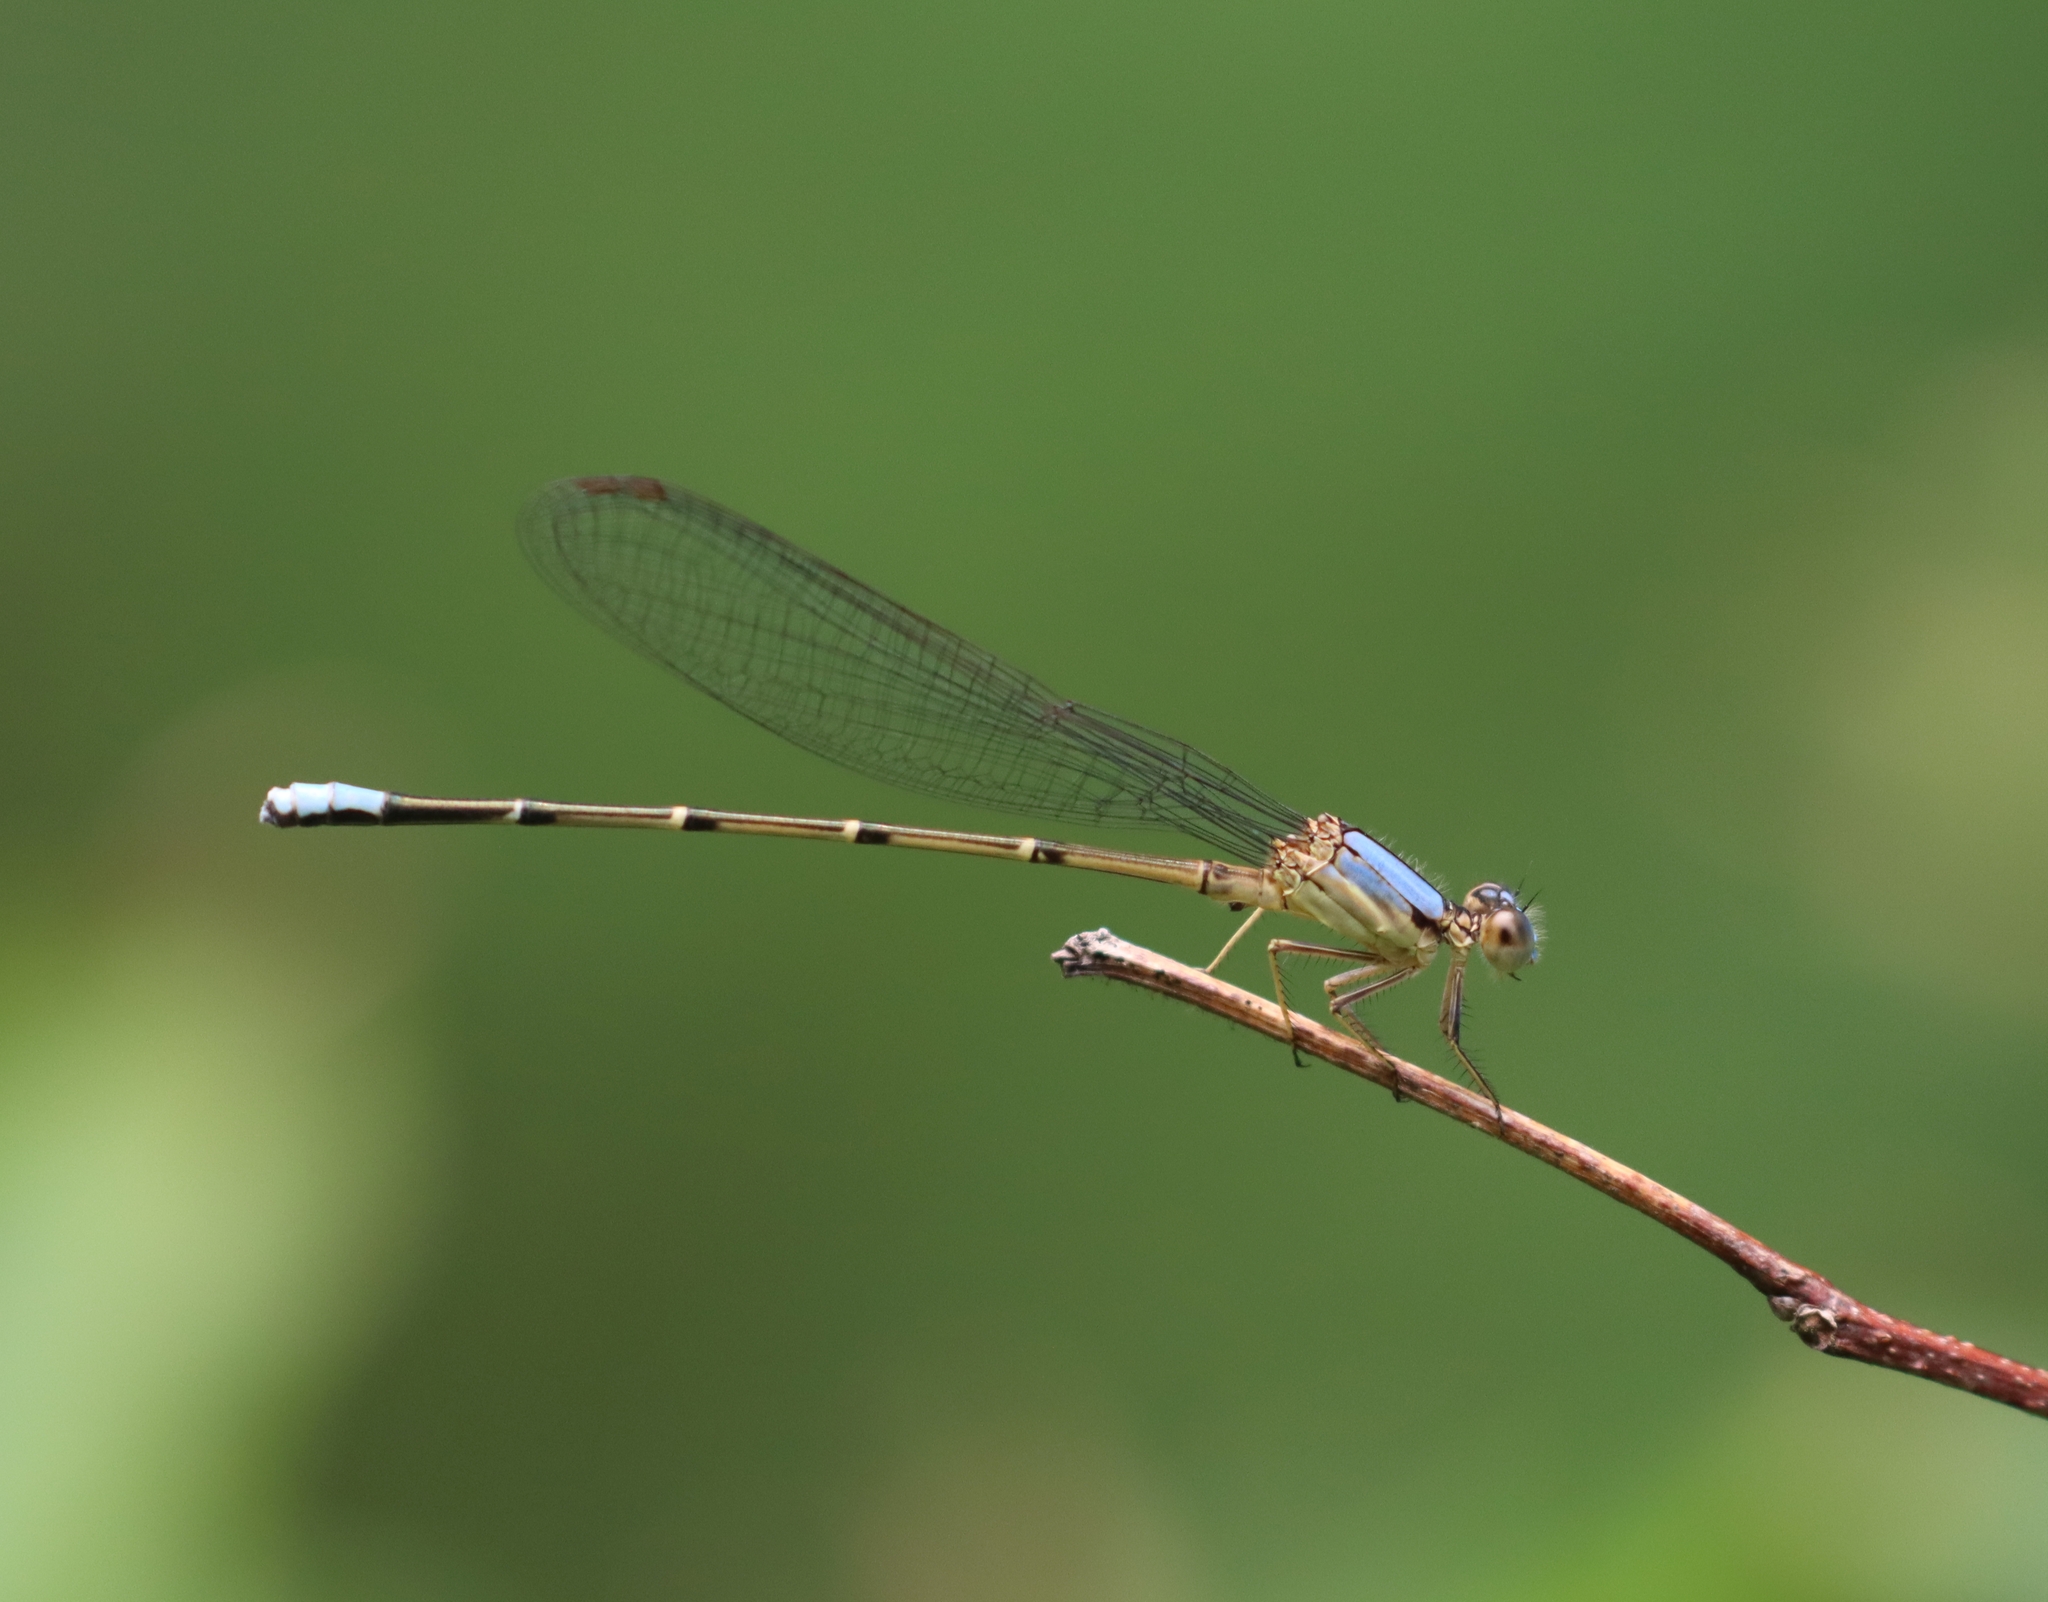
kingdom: Animalia
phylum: Arthropoda
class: Insecta
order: Odonata
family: Coenagrionidae
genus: Argia
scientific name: Argia apicalis
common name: Blue-fronted dancer
